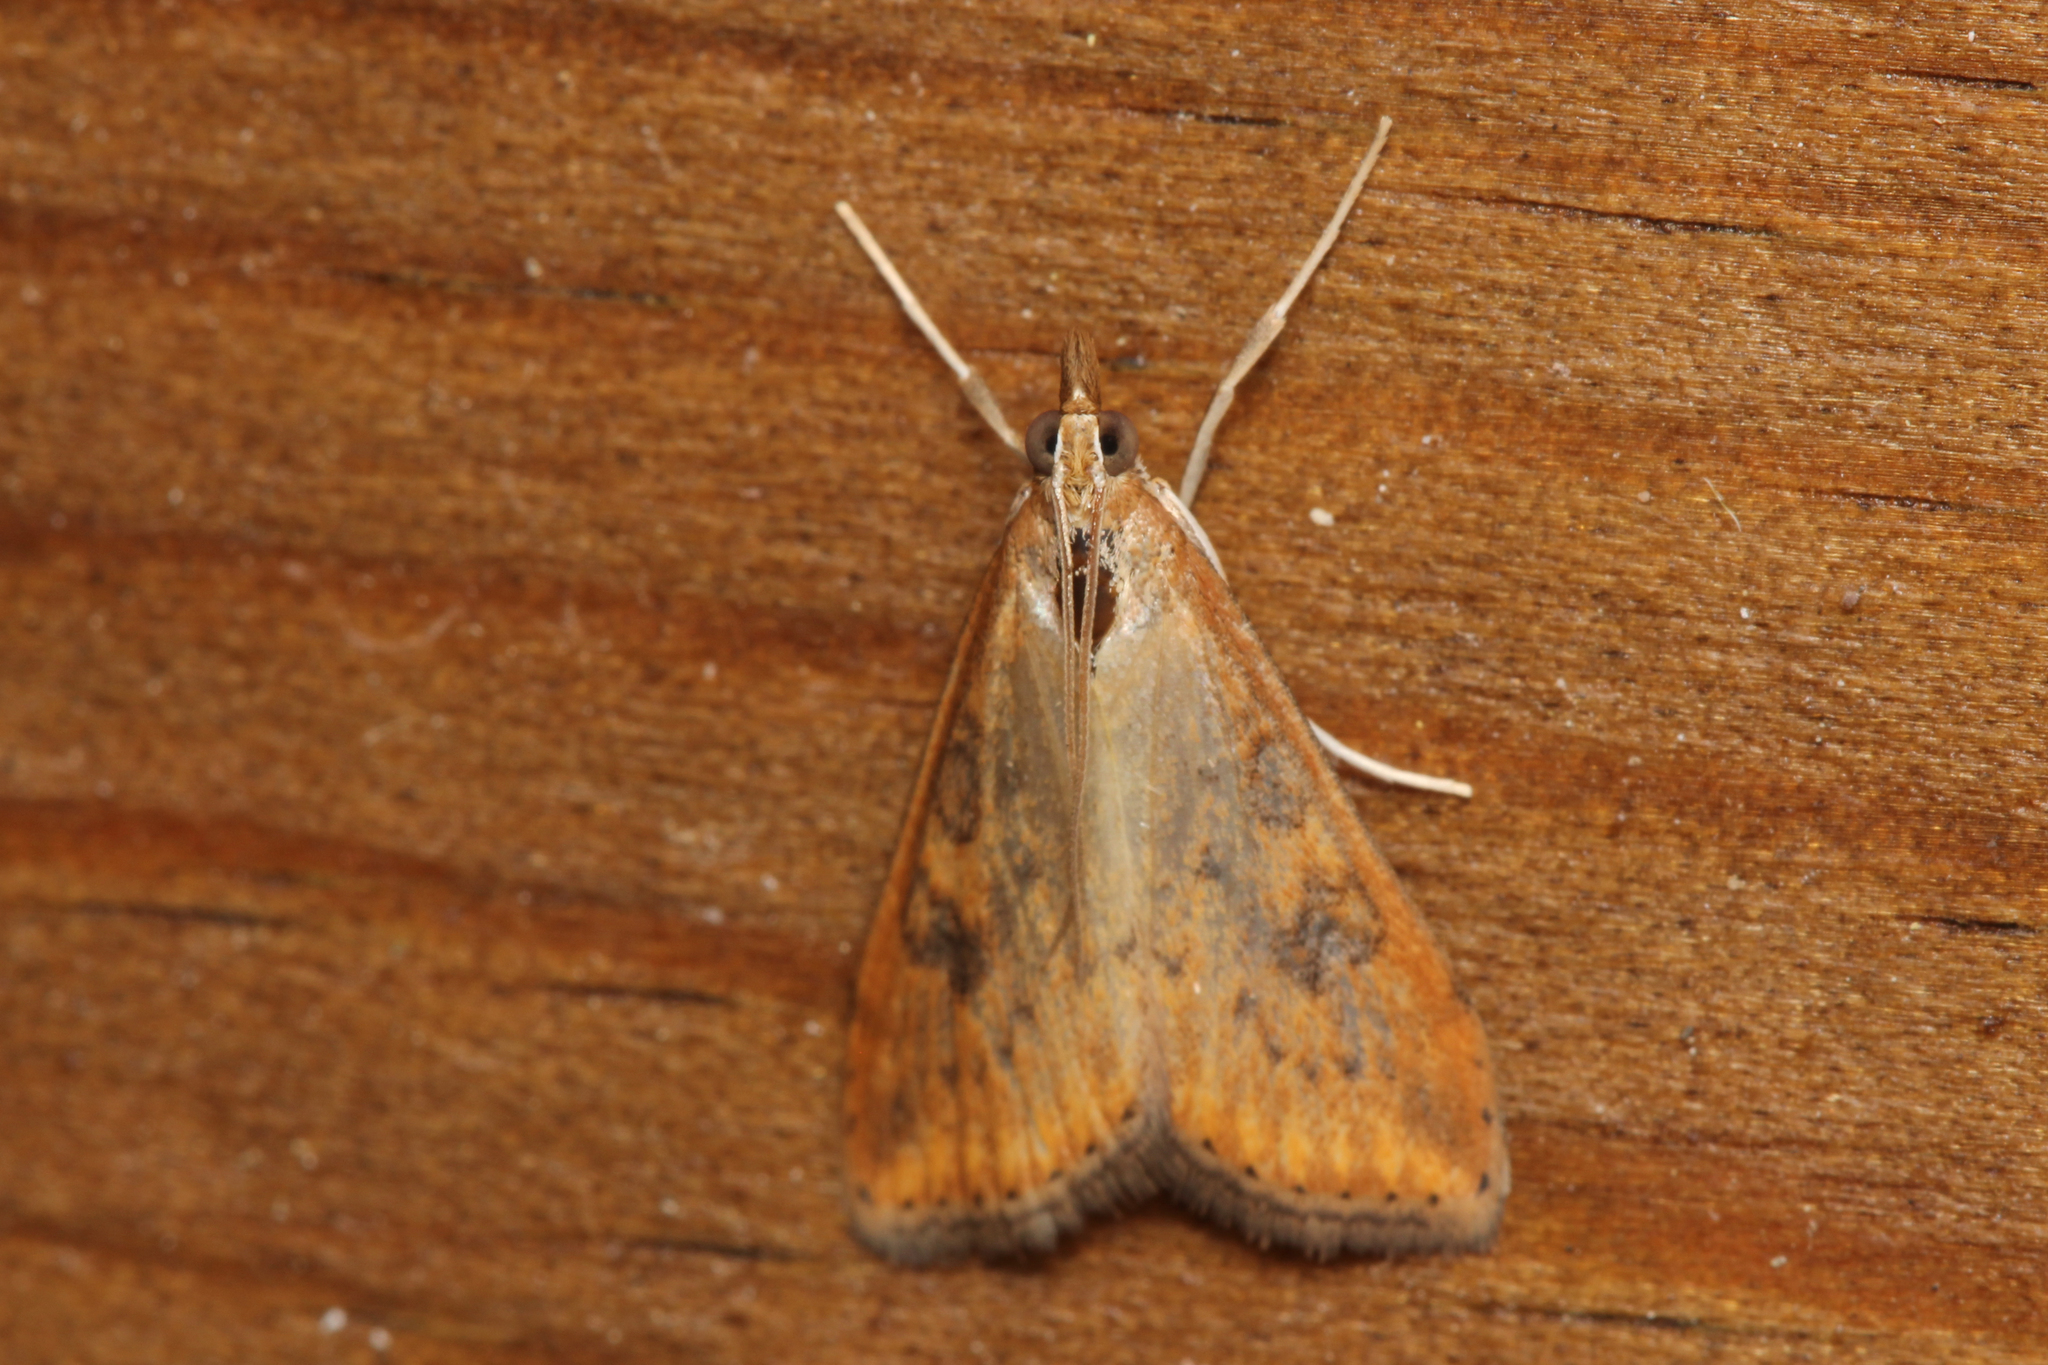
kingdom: Animalia
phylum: Arthropoda
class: Insecta
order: Lepidoptera
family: Crambidae
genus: Udea
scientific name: Udea ferrugalis
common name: Rusty dot
